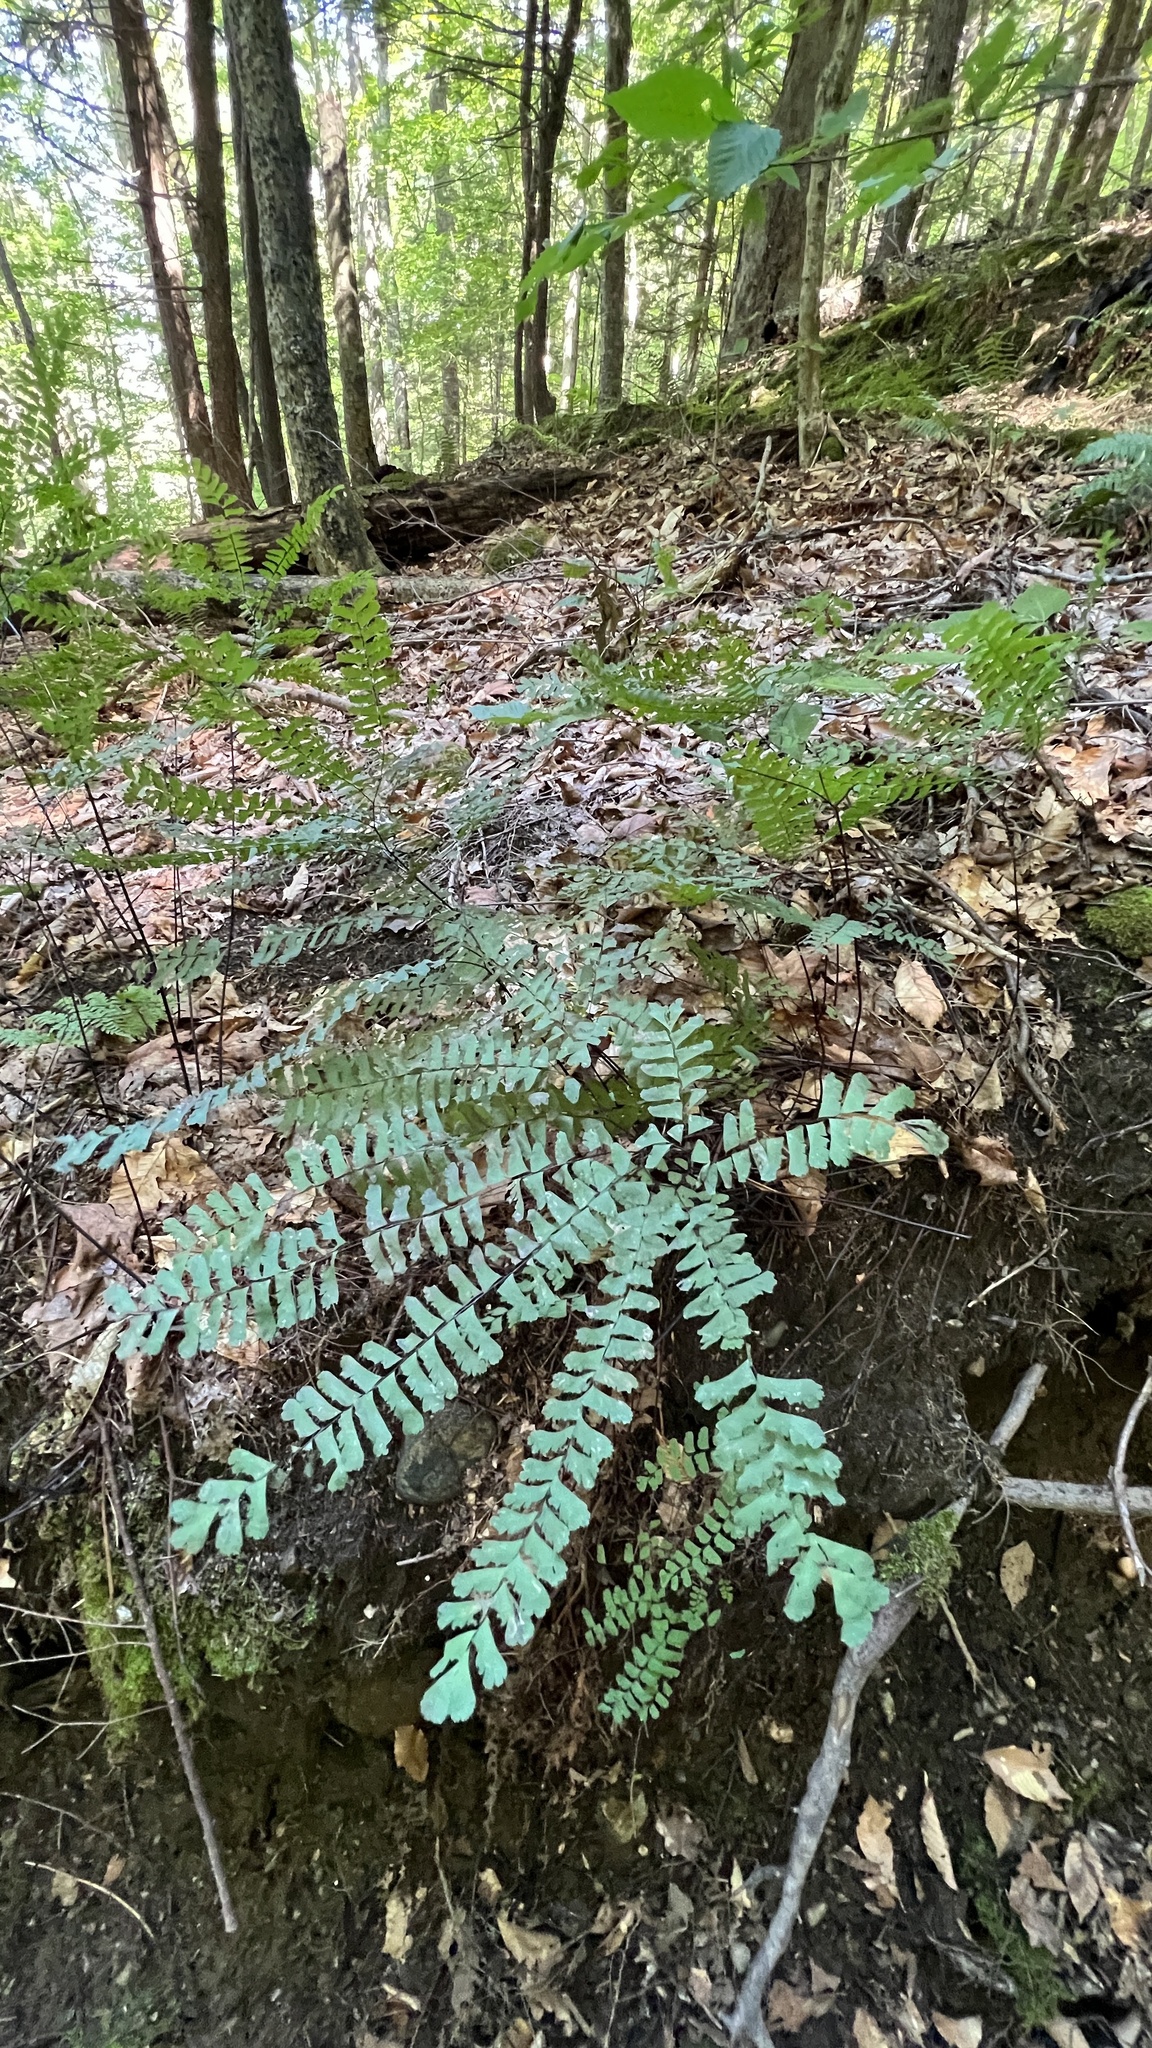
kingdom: Plantae
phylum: Tracheophyta
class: Polypodiopsida
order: Polypodiales
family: Pteridaceae
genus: Adiantum
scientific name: Adiantum pedatum
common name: Five-finger fern
